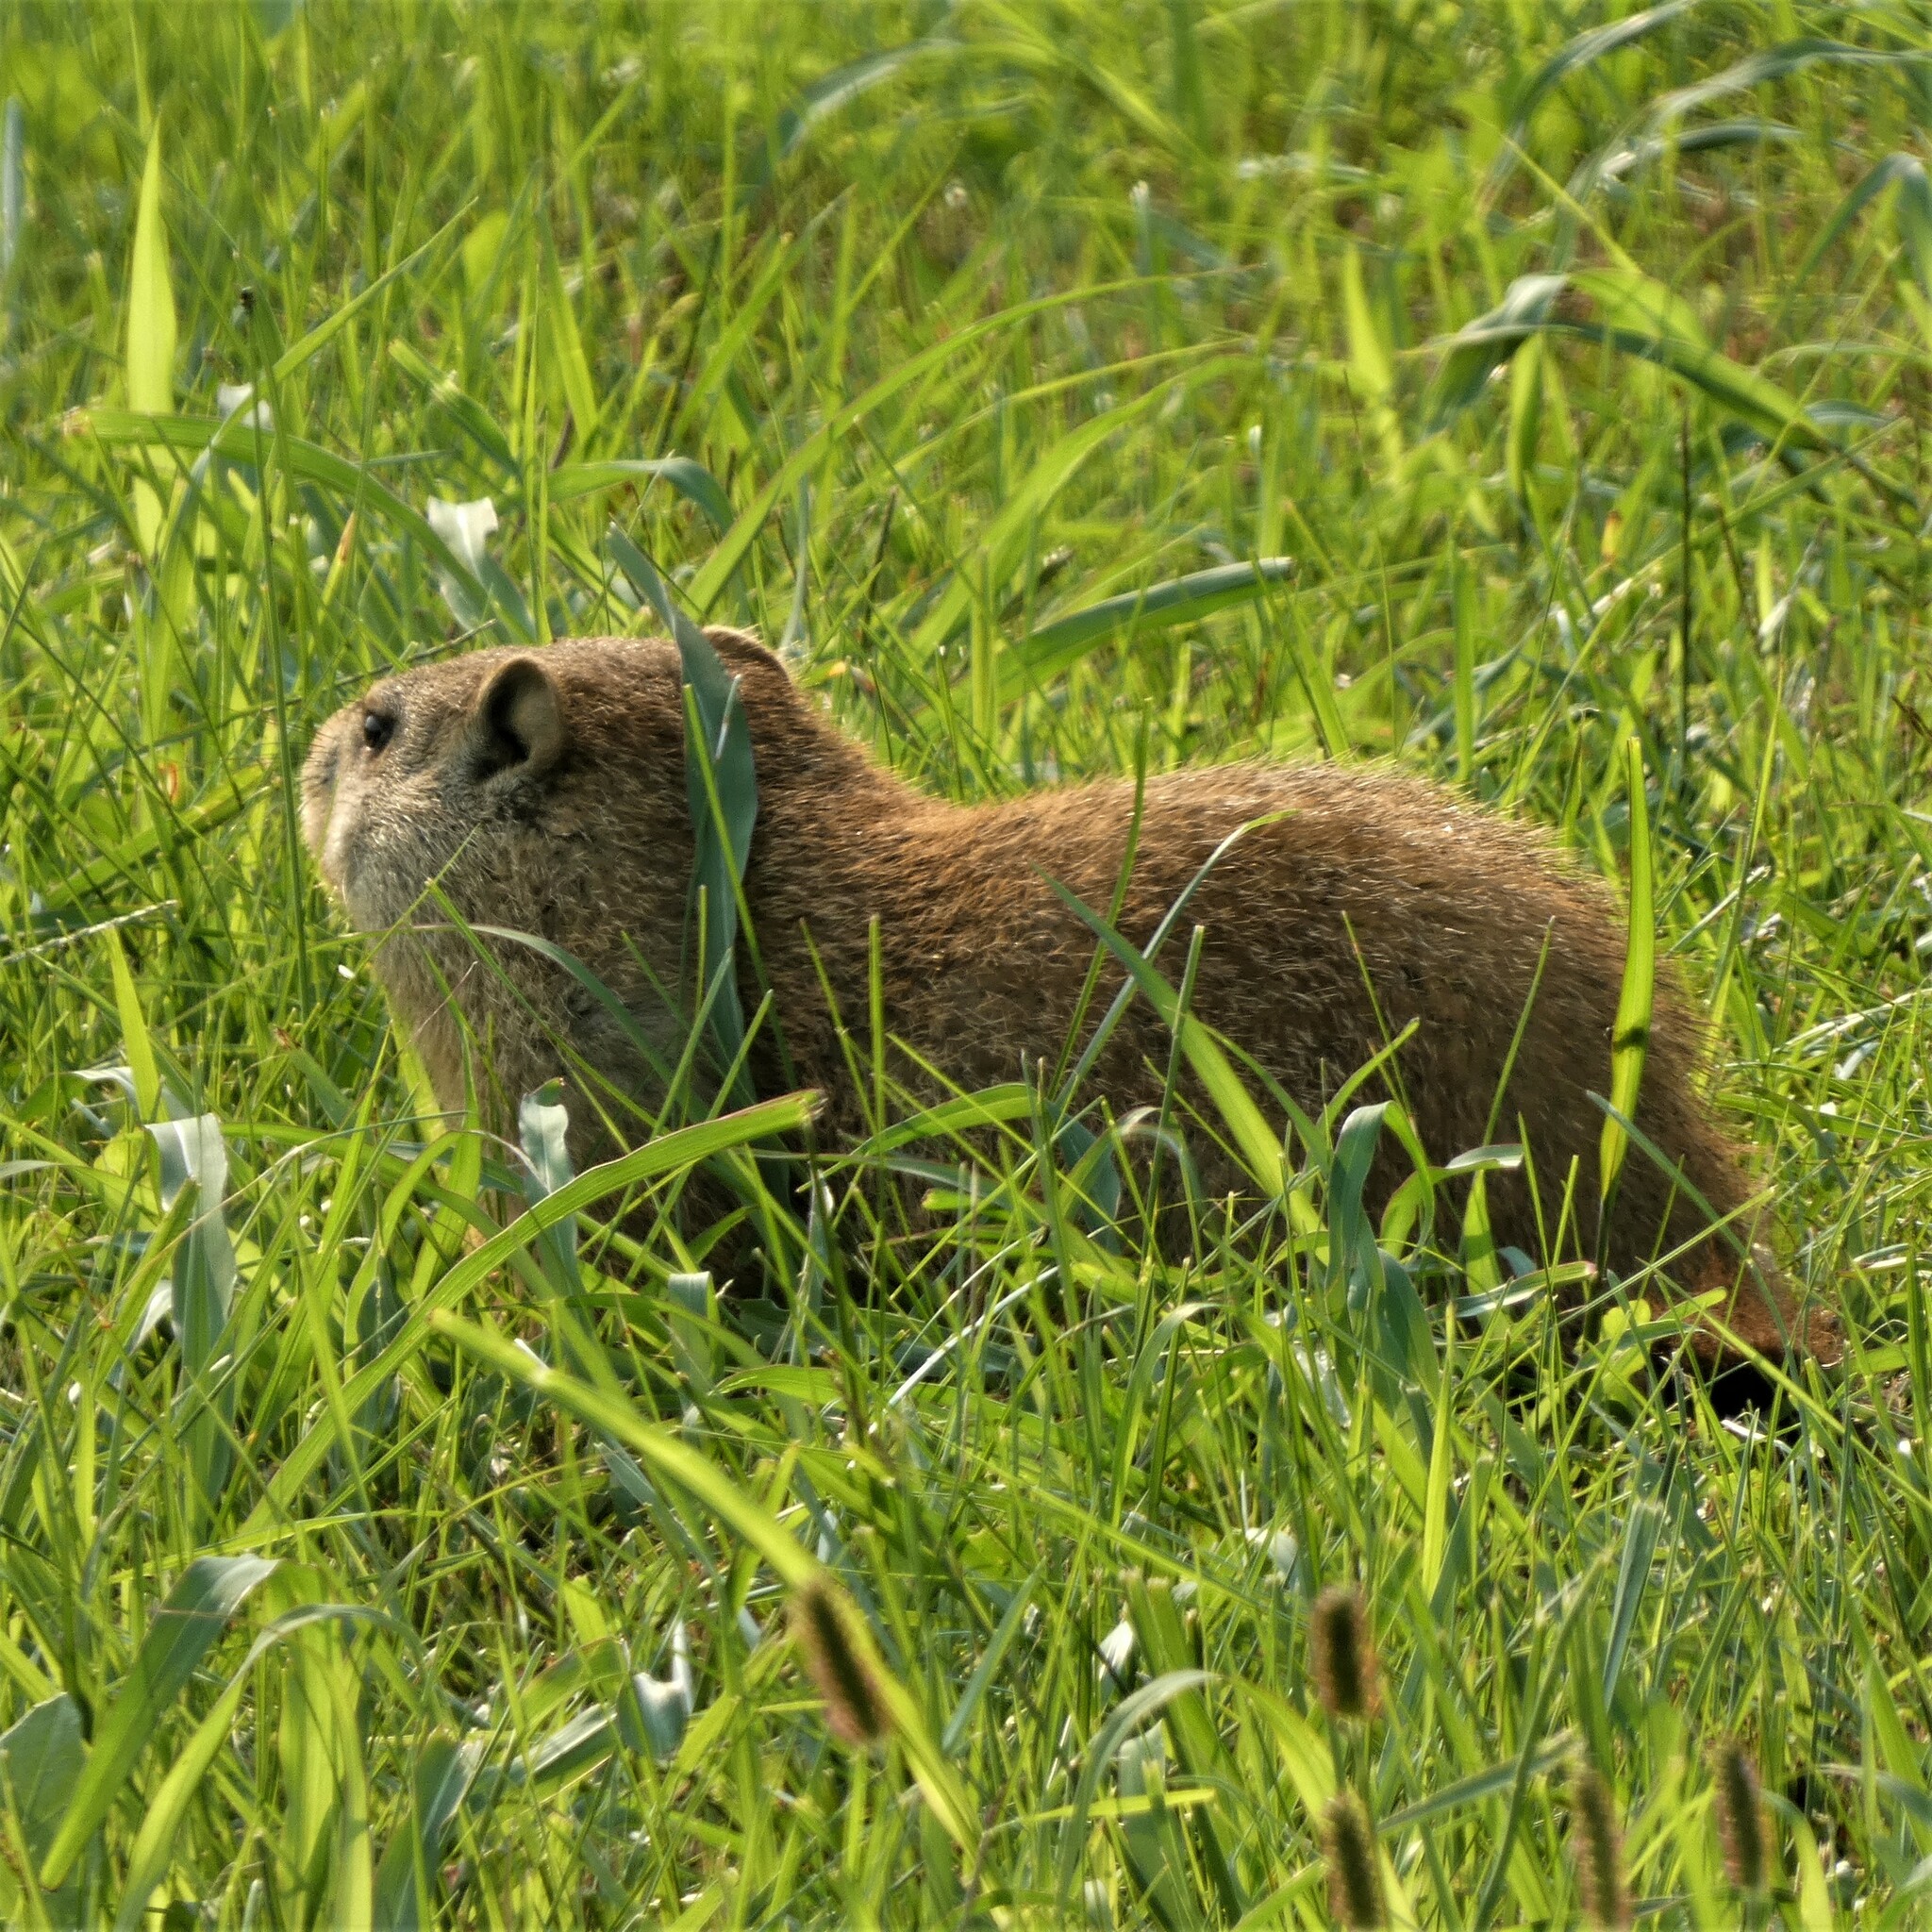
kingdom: Animalia
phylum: Chordata
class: Mammalia
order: Rodentia
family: Sciuridae
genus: Marmota
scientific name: Marmota monax
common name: Groundhog
